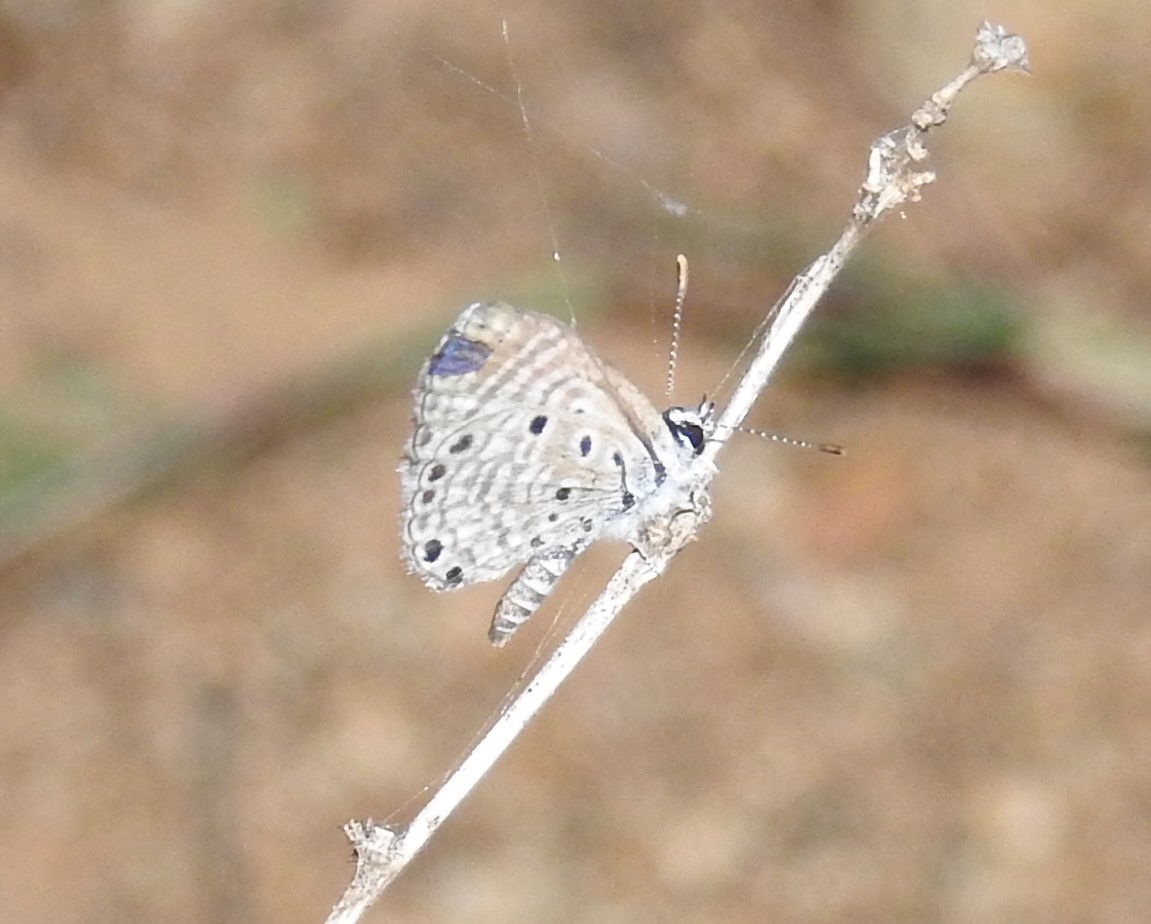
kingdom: Animalia
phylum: Arthropoda
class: Insecta
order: Lepidoptera
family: Lycaenidae
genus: Azanus
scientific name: Azanus jesous
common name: African babul blue
